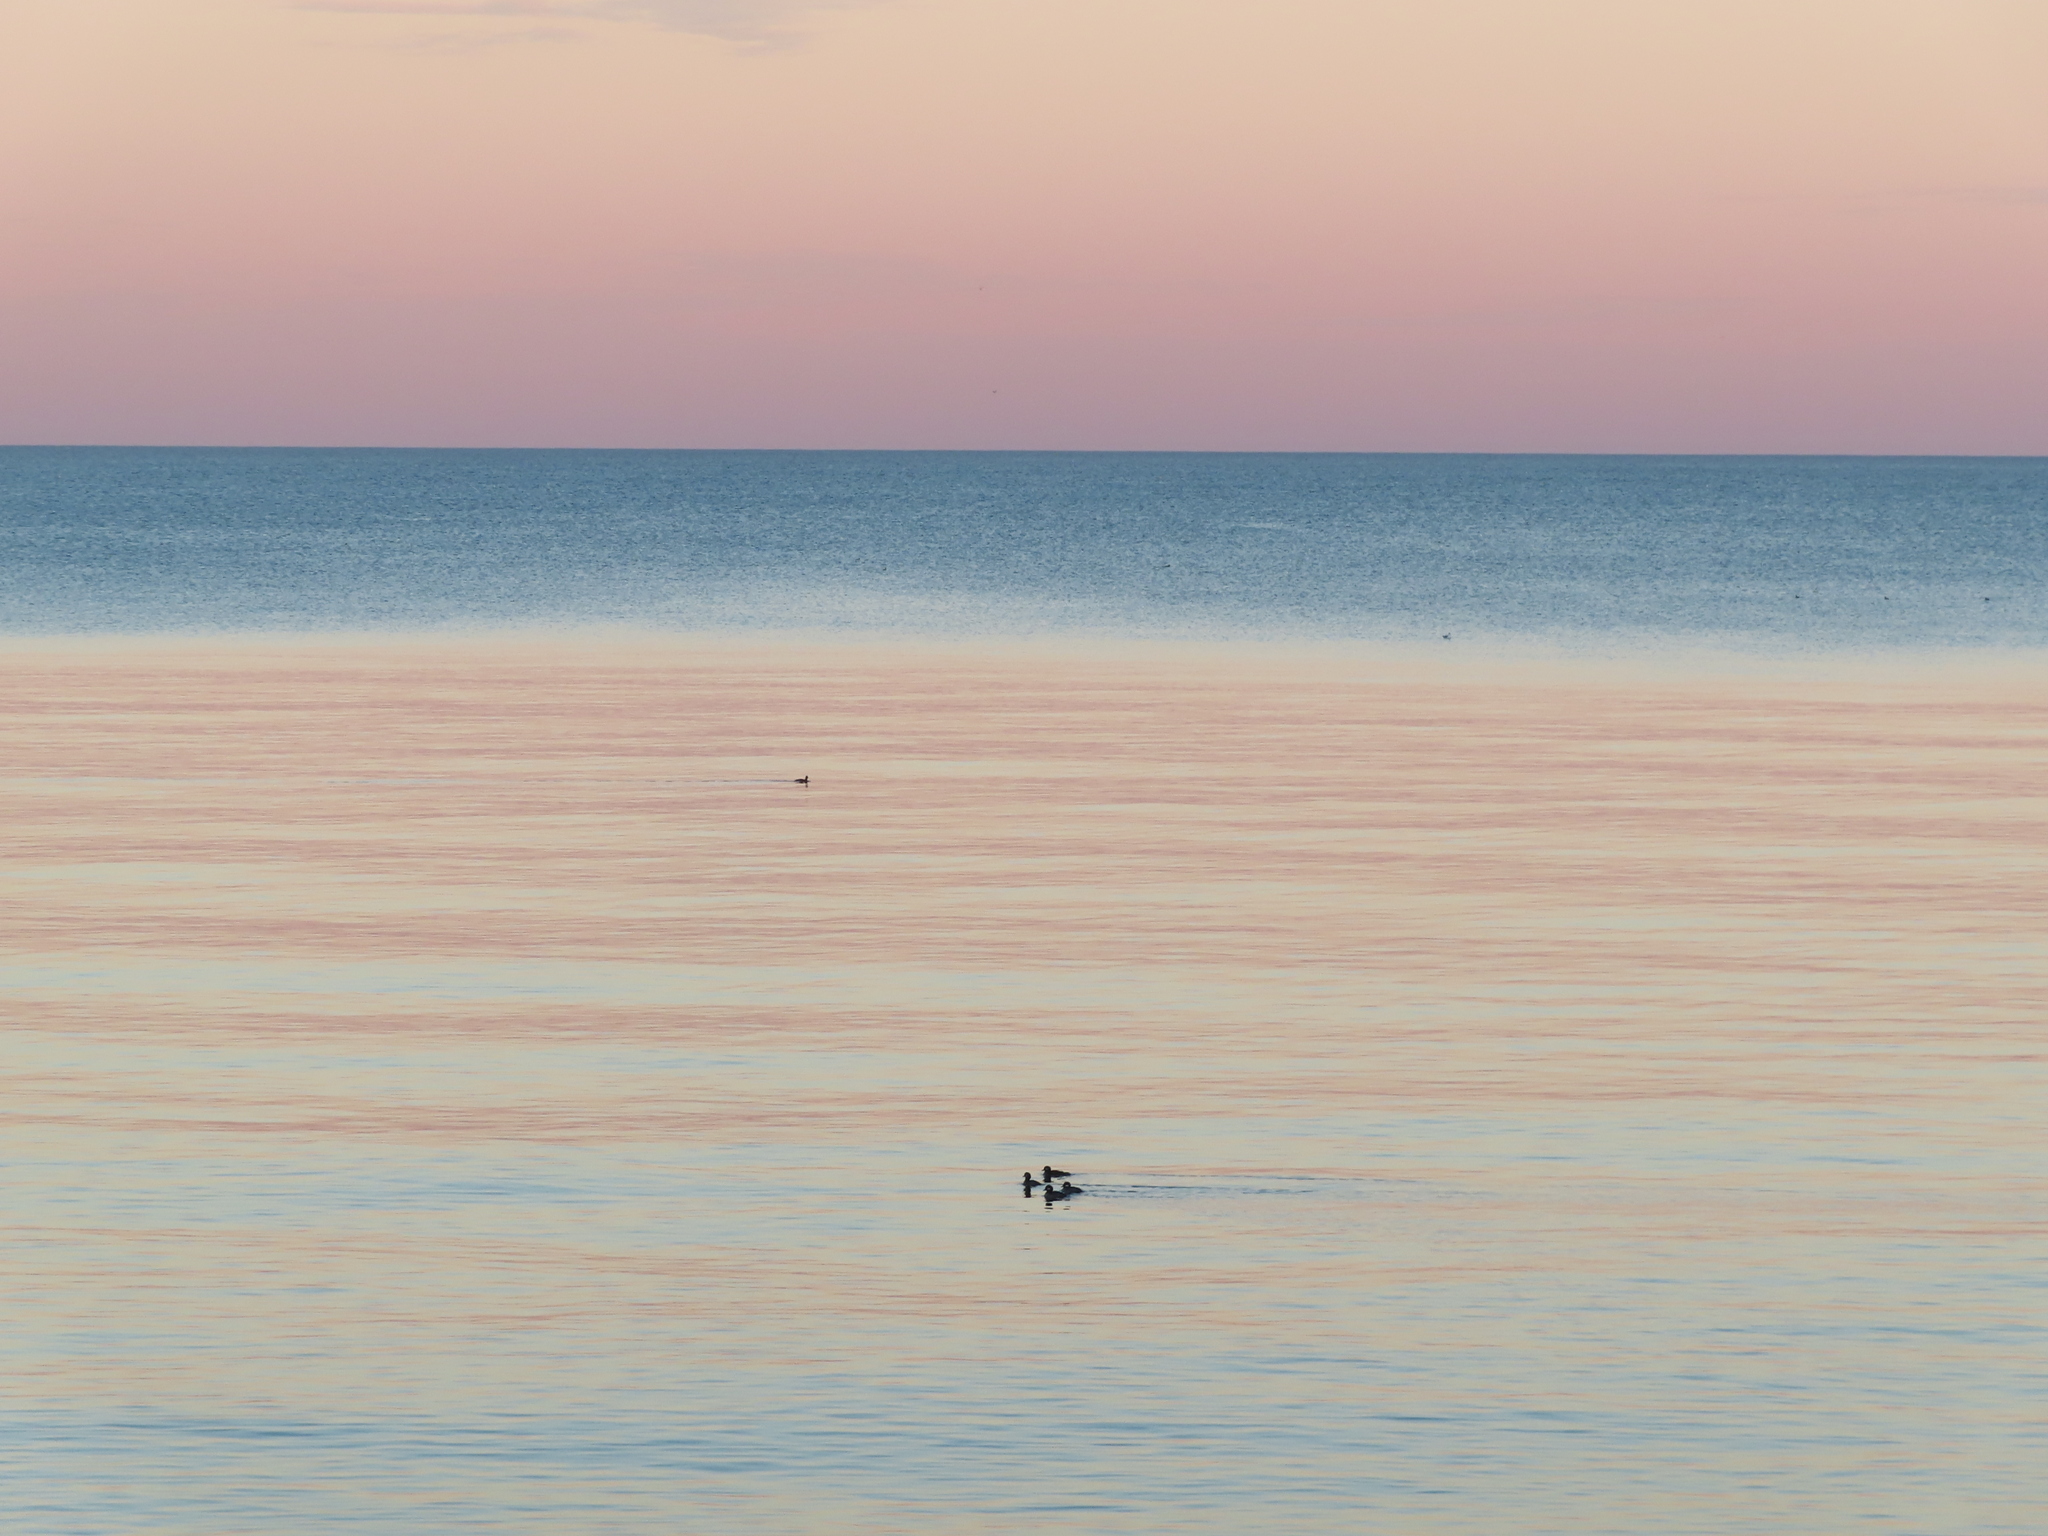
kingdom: Animalia
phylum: Chordata
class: Aves
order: Anseriformes
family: Anatidae
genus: Bucephala
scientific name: Bucephala albeola
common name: Bufflehead
